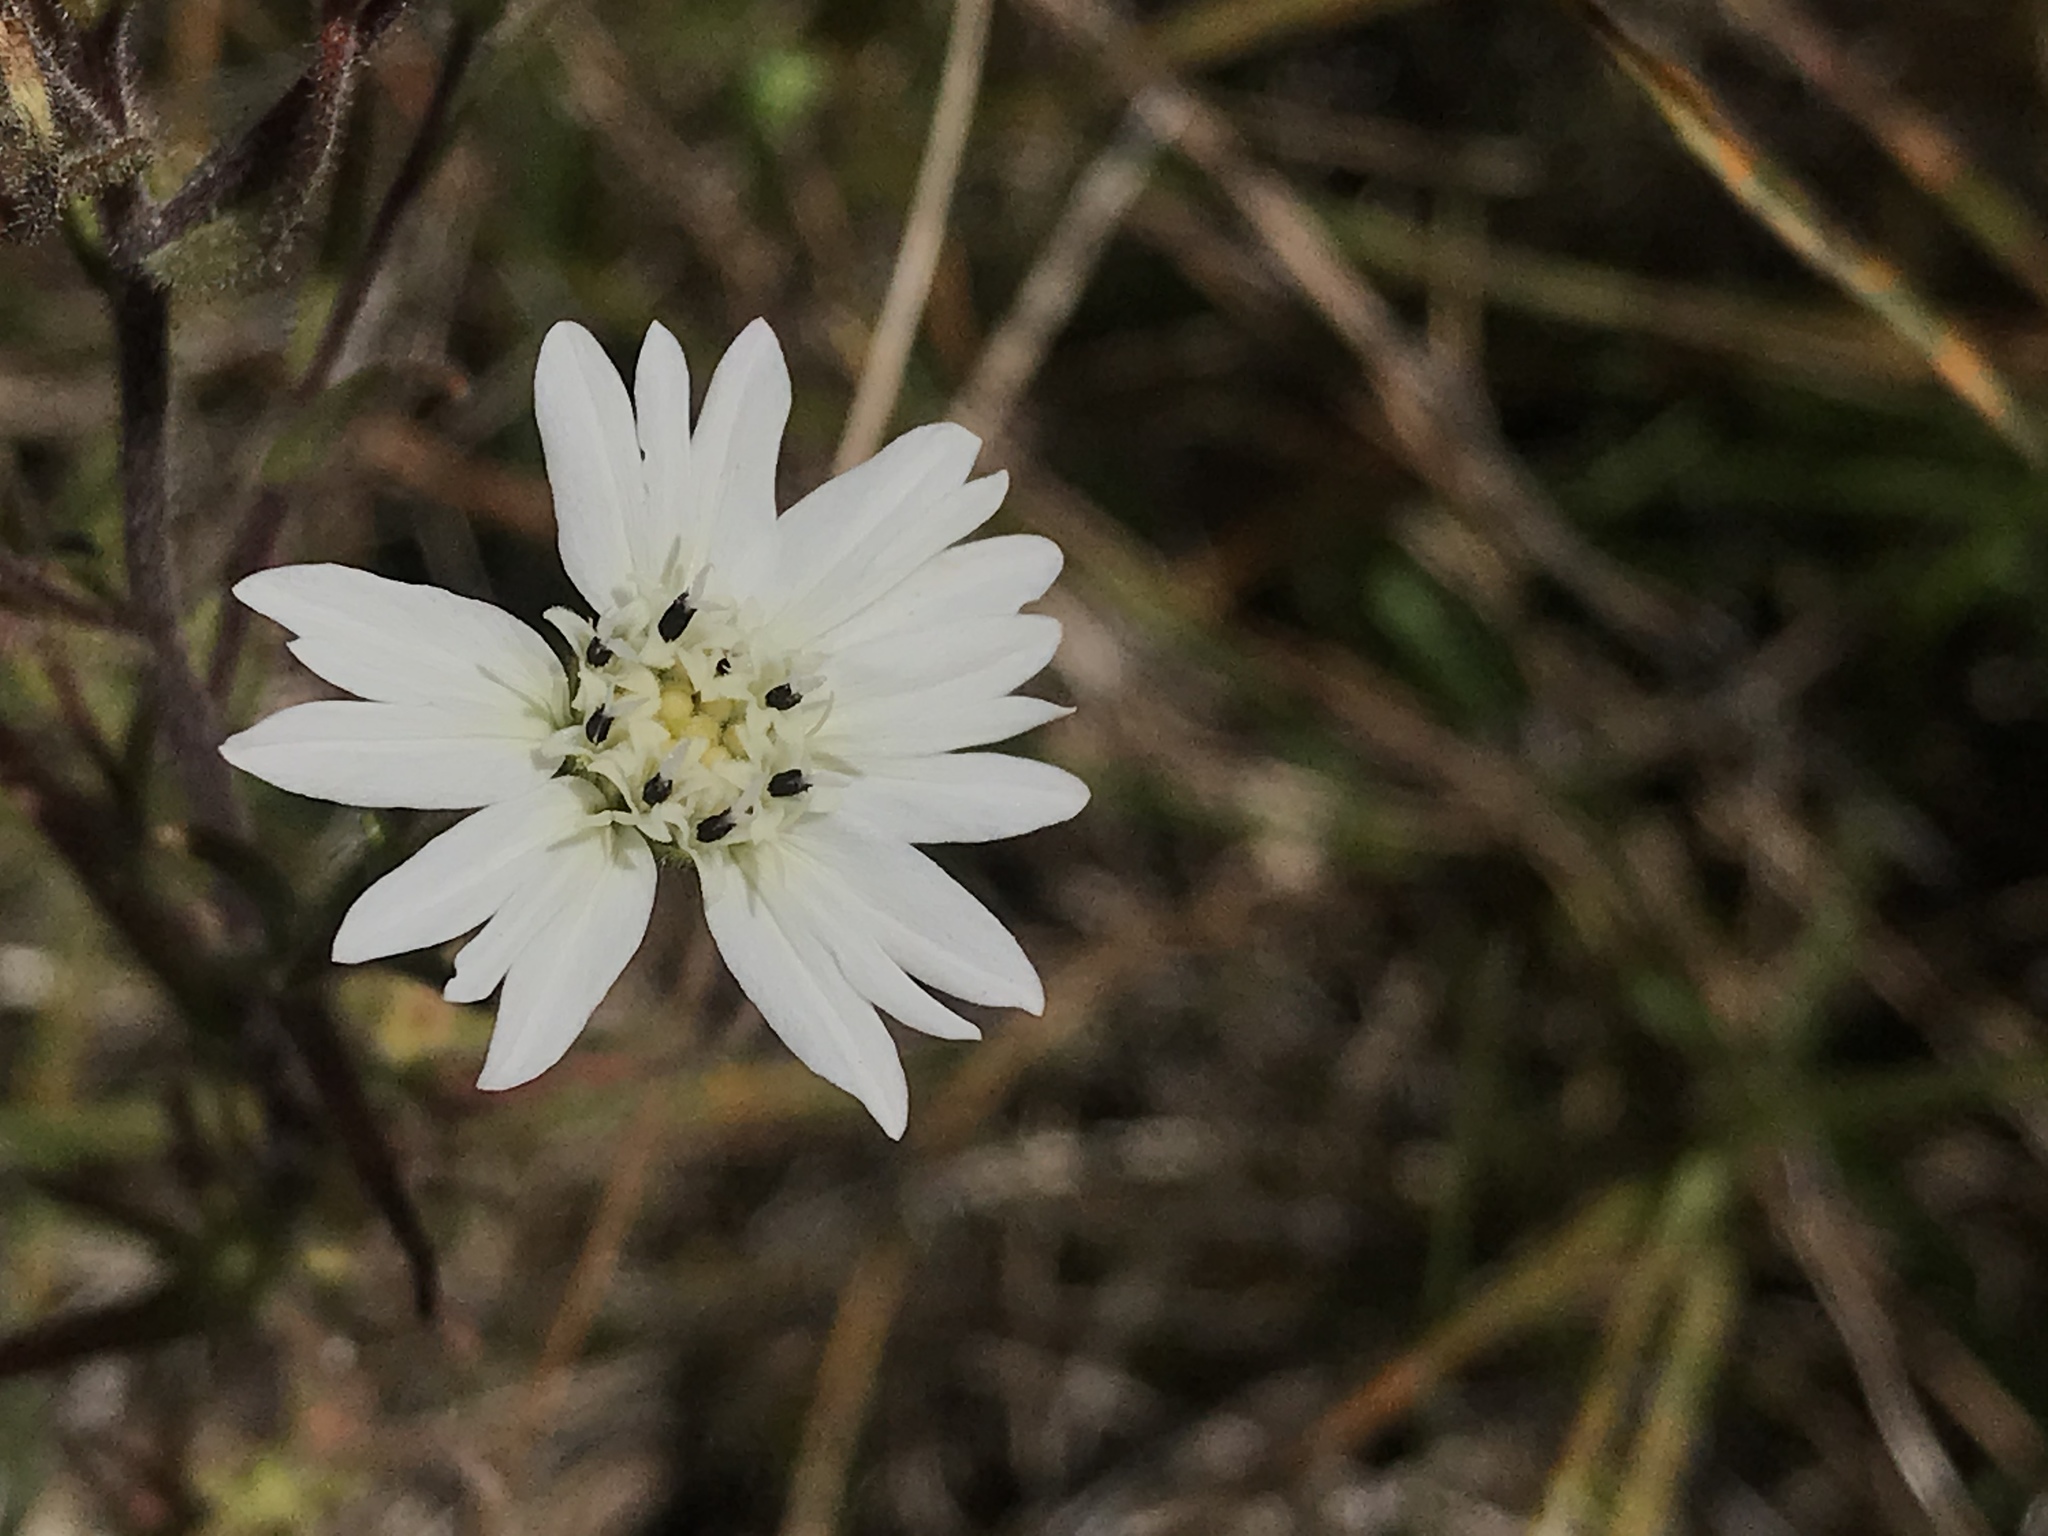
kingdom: Plantae
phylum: Tracheophyta
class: Magnoliopsida
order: Asterales
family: Asteraceae
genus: Hemizonia
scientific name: Hemizonia congesta
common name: Hayfield tarweed
